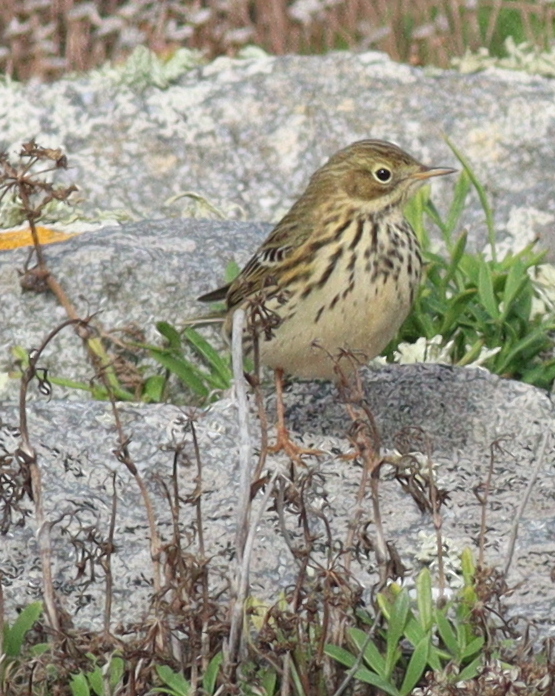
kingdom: Animalia
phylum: Chordata
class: Aves
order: Passeriformes
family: Motacillidae
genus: Anthus
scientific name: Anthus pratensis
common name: Meadow pipit
